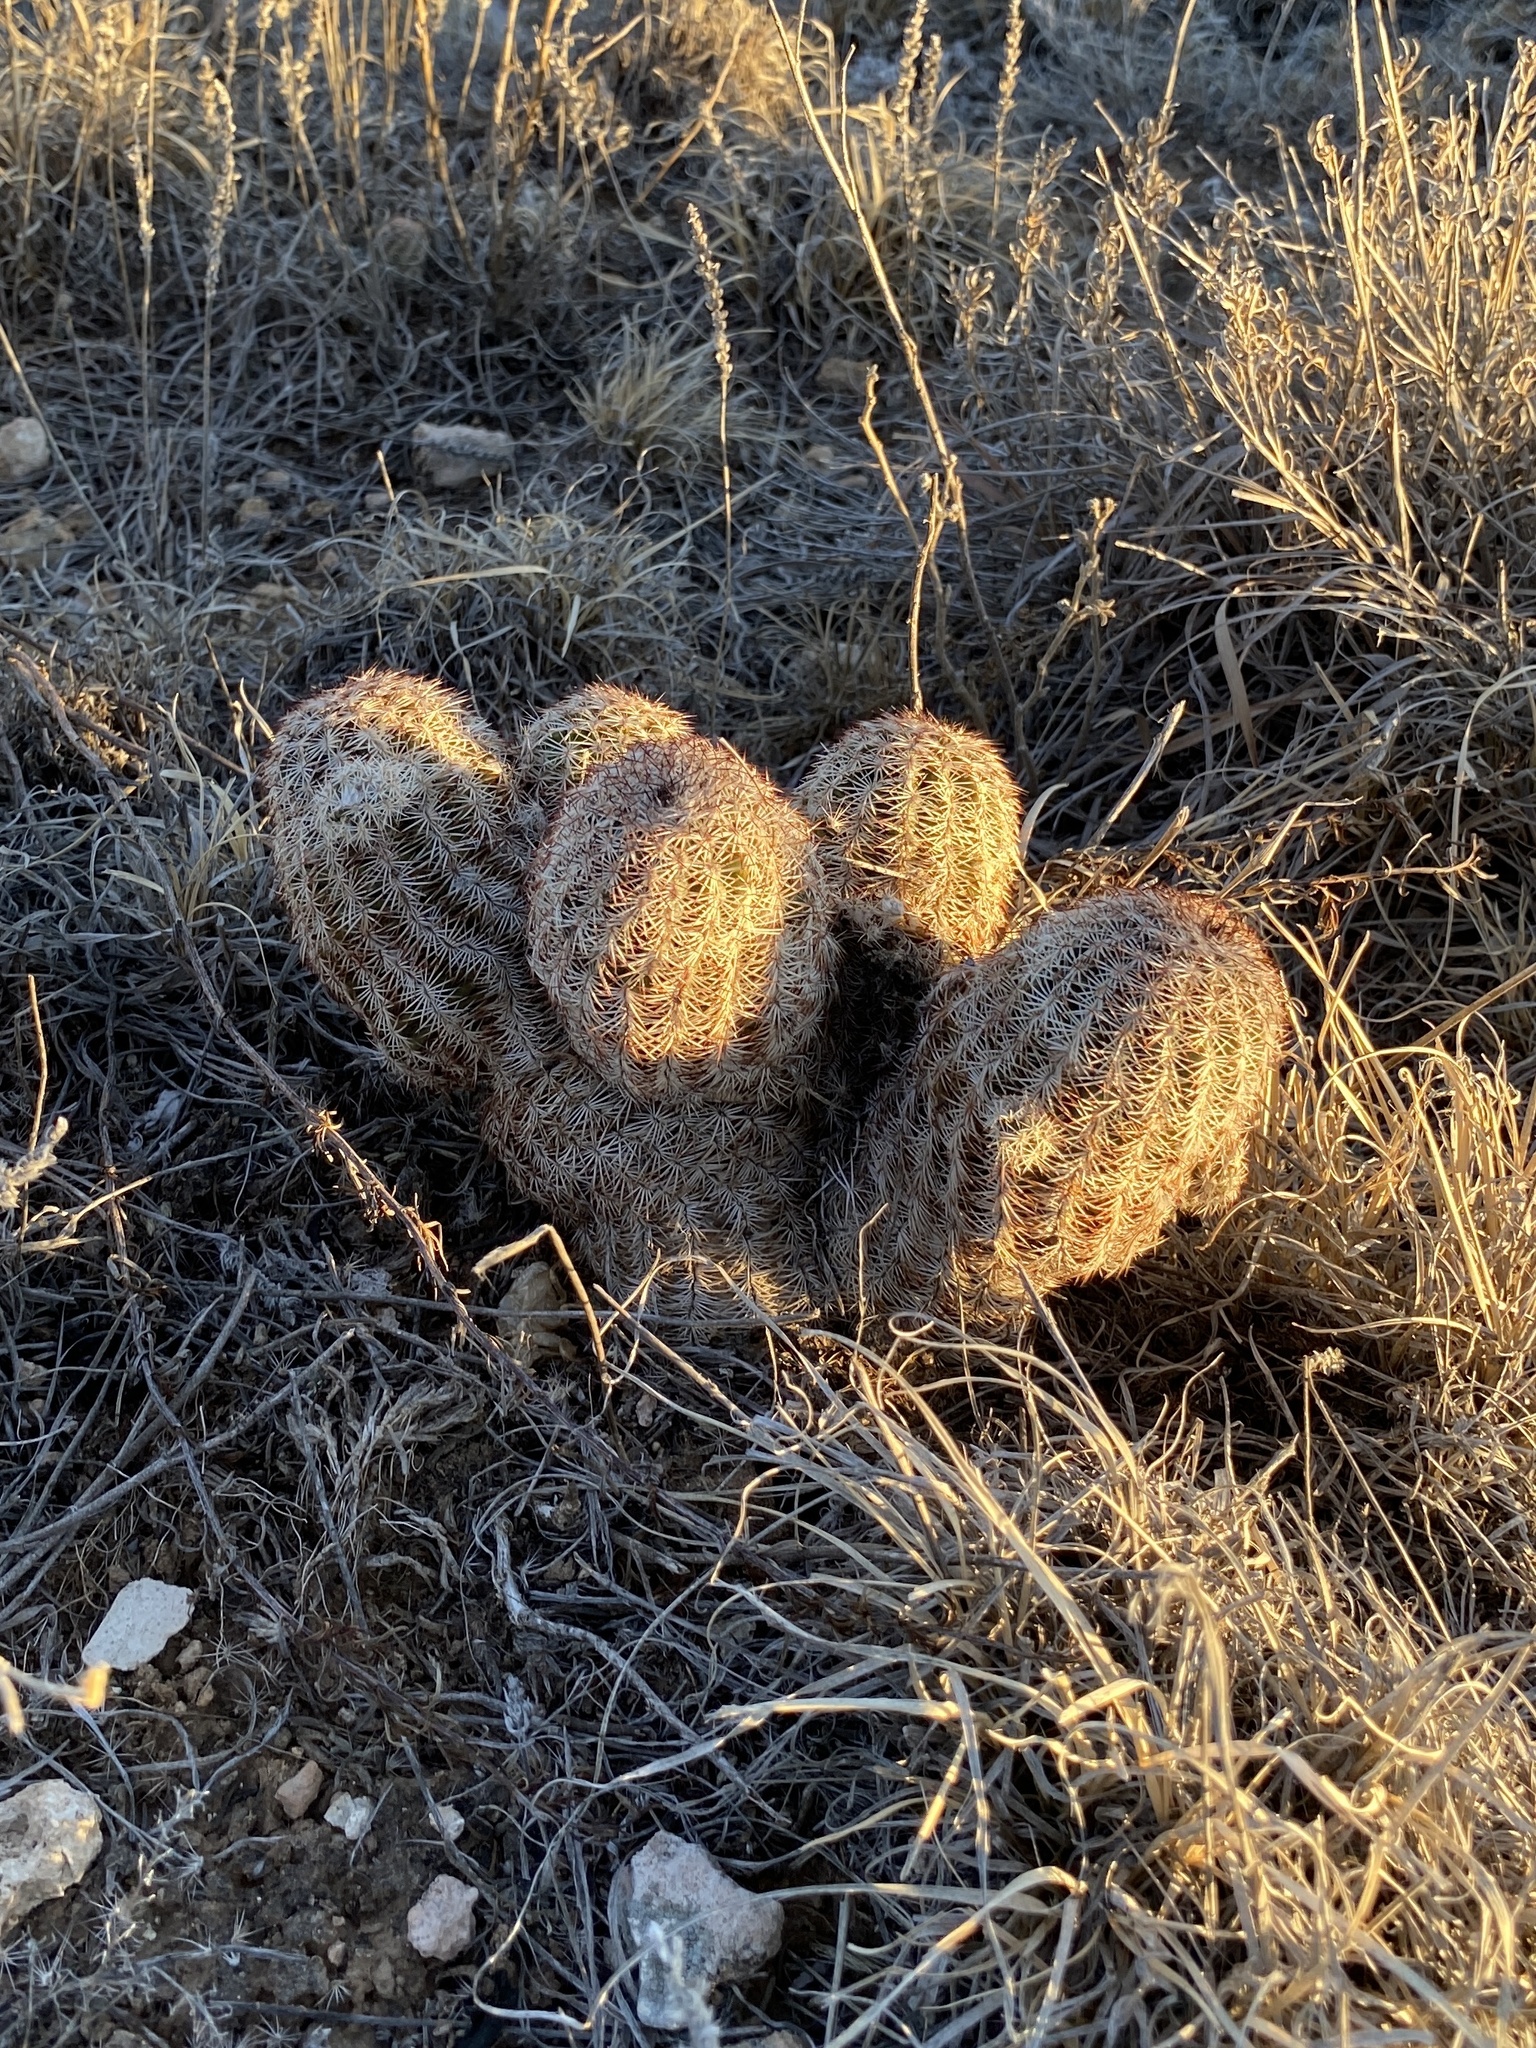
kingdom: Plantae
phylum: Tracheophyta
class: Magnoliopsida
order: Caryophyllales
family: Cactaceae
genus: Echinocereus
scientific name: Echinocereus reichenbachii
